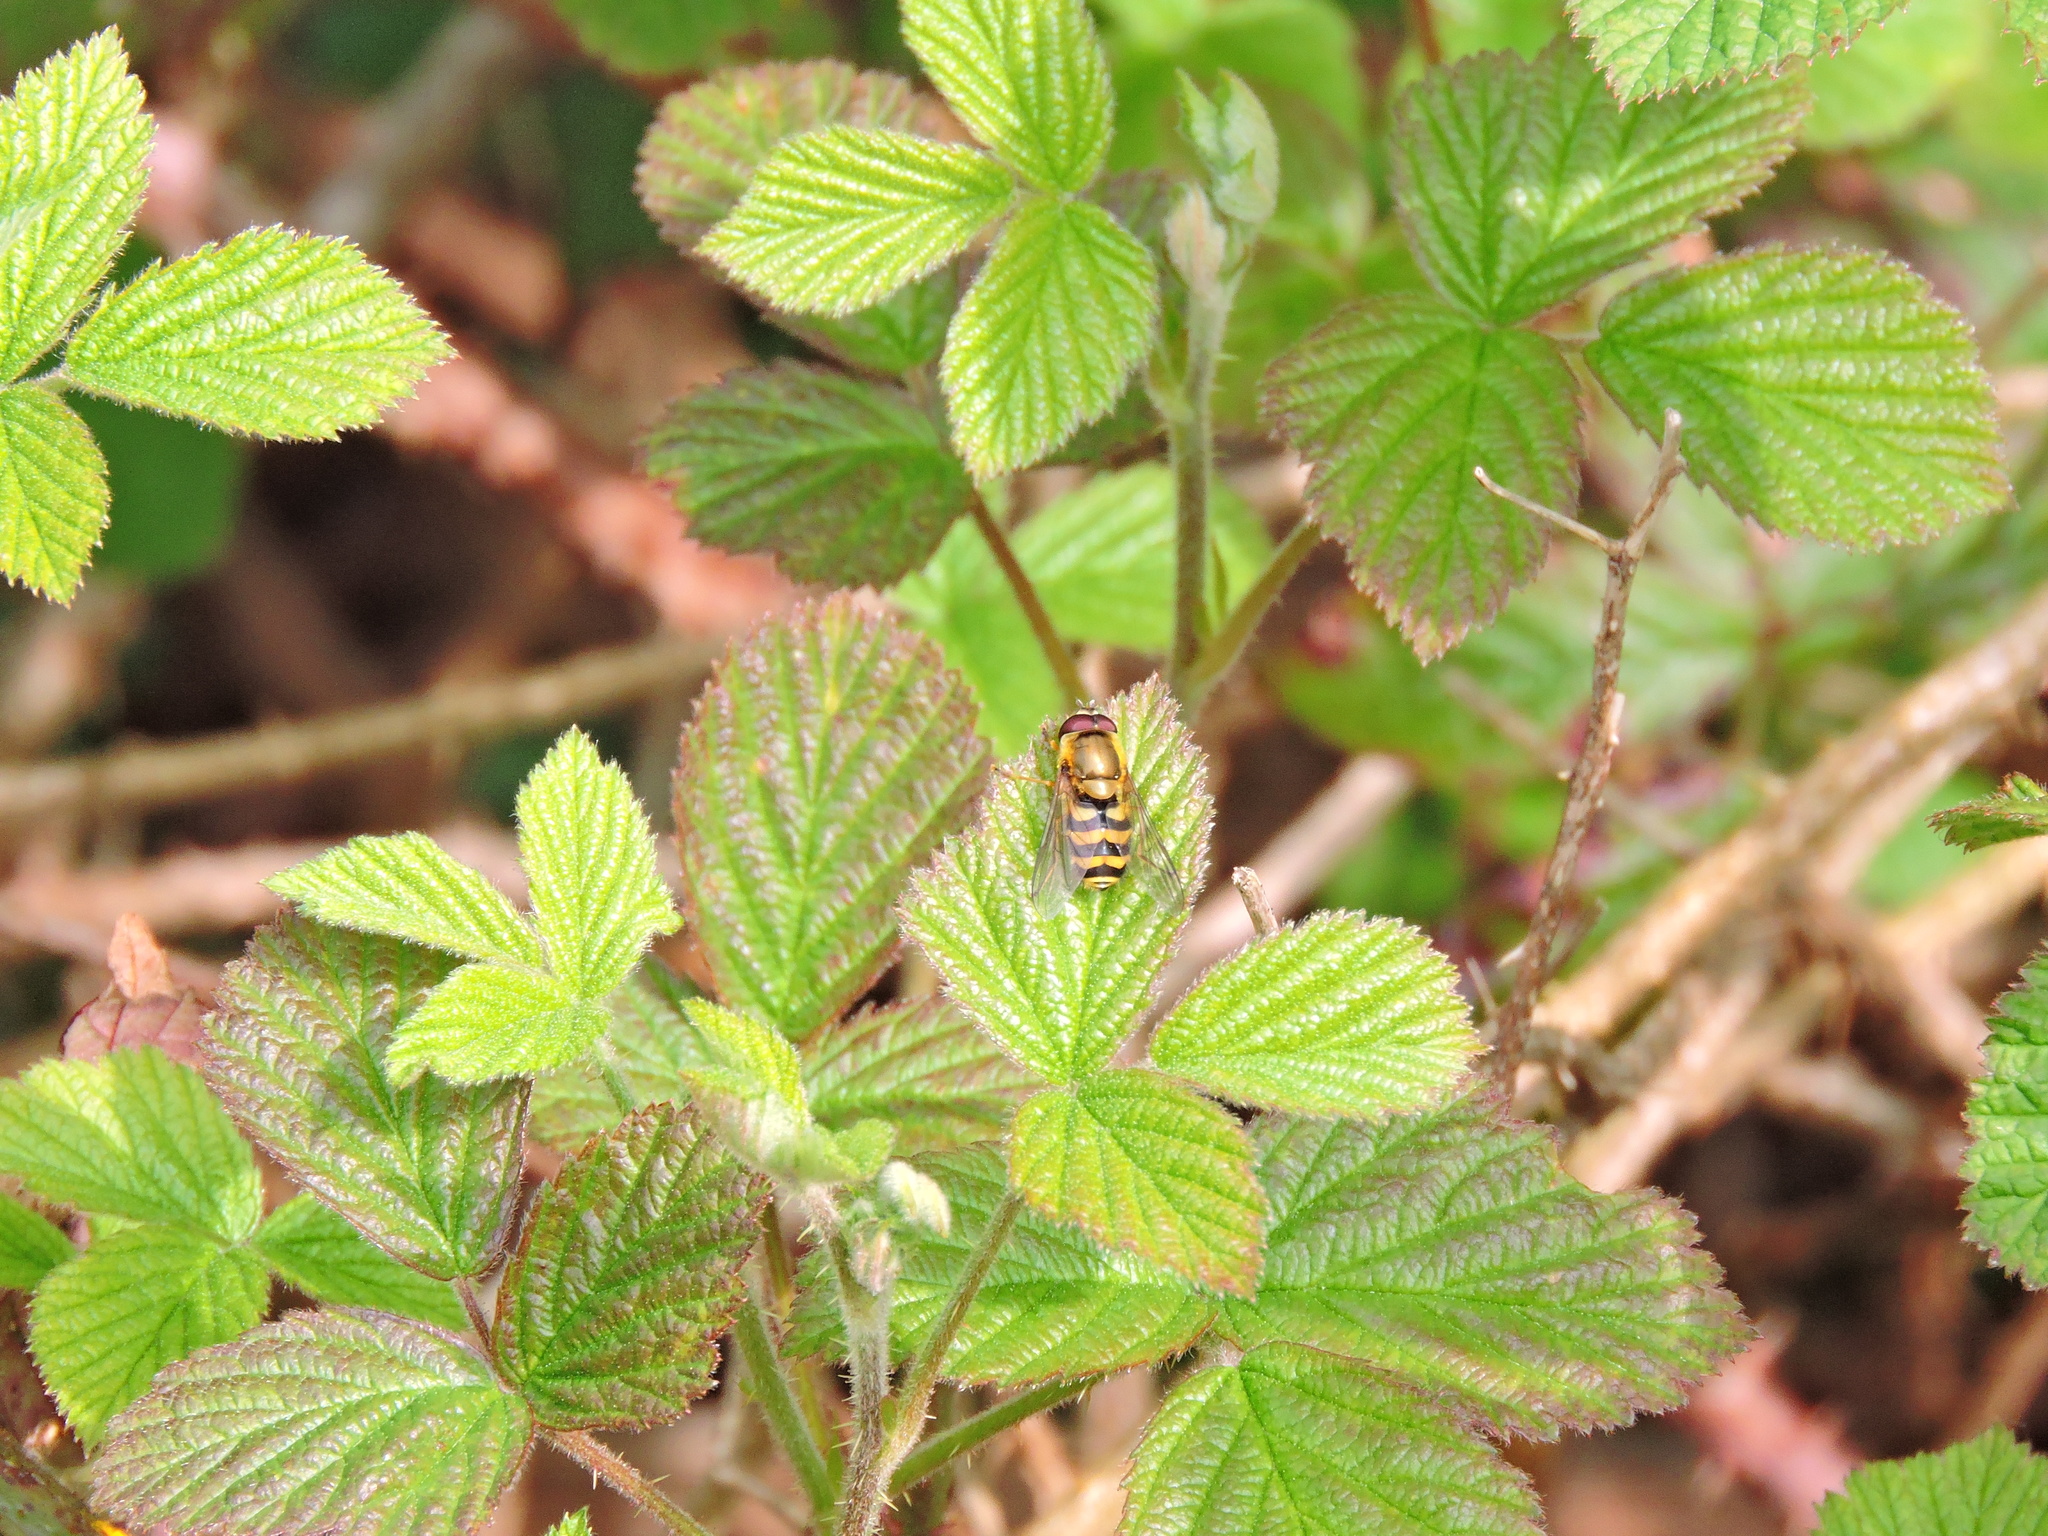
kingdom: Animalia
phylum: Arthropoda
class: Insecta
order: Diptera
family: Syrphidae
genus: Syrphus
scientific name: Syrphus
